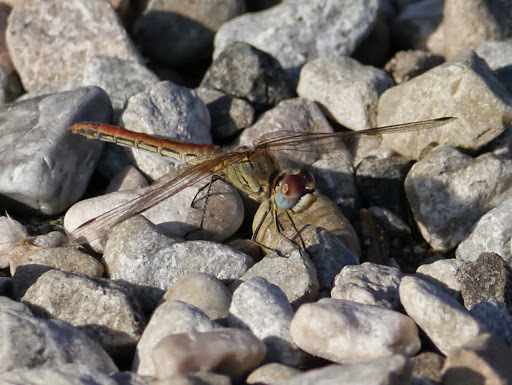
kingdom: Animalia
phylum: Arthropoda
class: Insecta
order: Odonata
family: Libellulidae
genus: Sympetrum
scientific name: Sympetrum fonscolombii
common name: Red-veined darter
